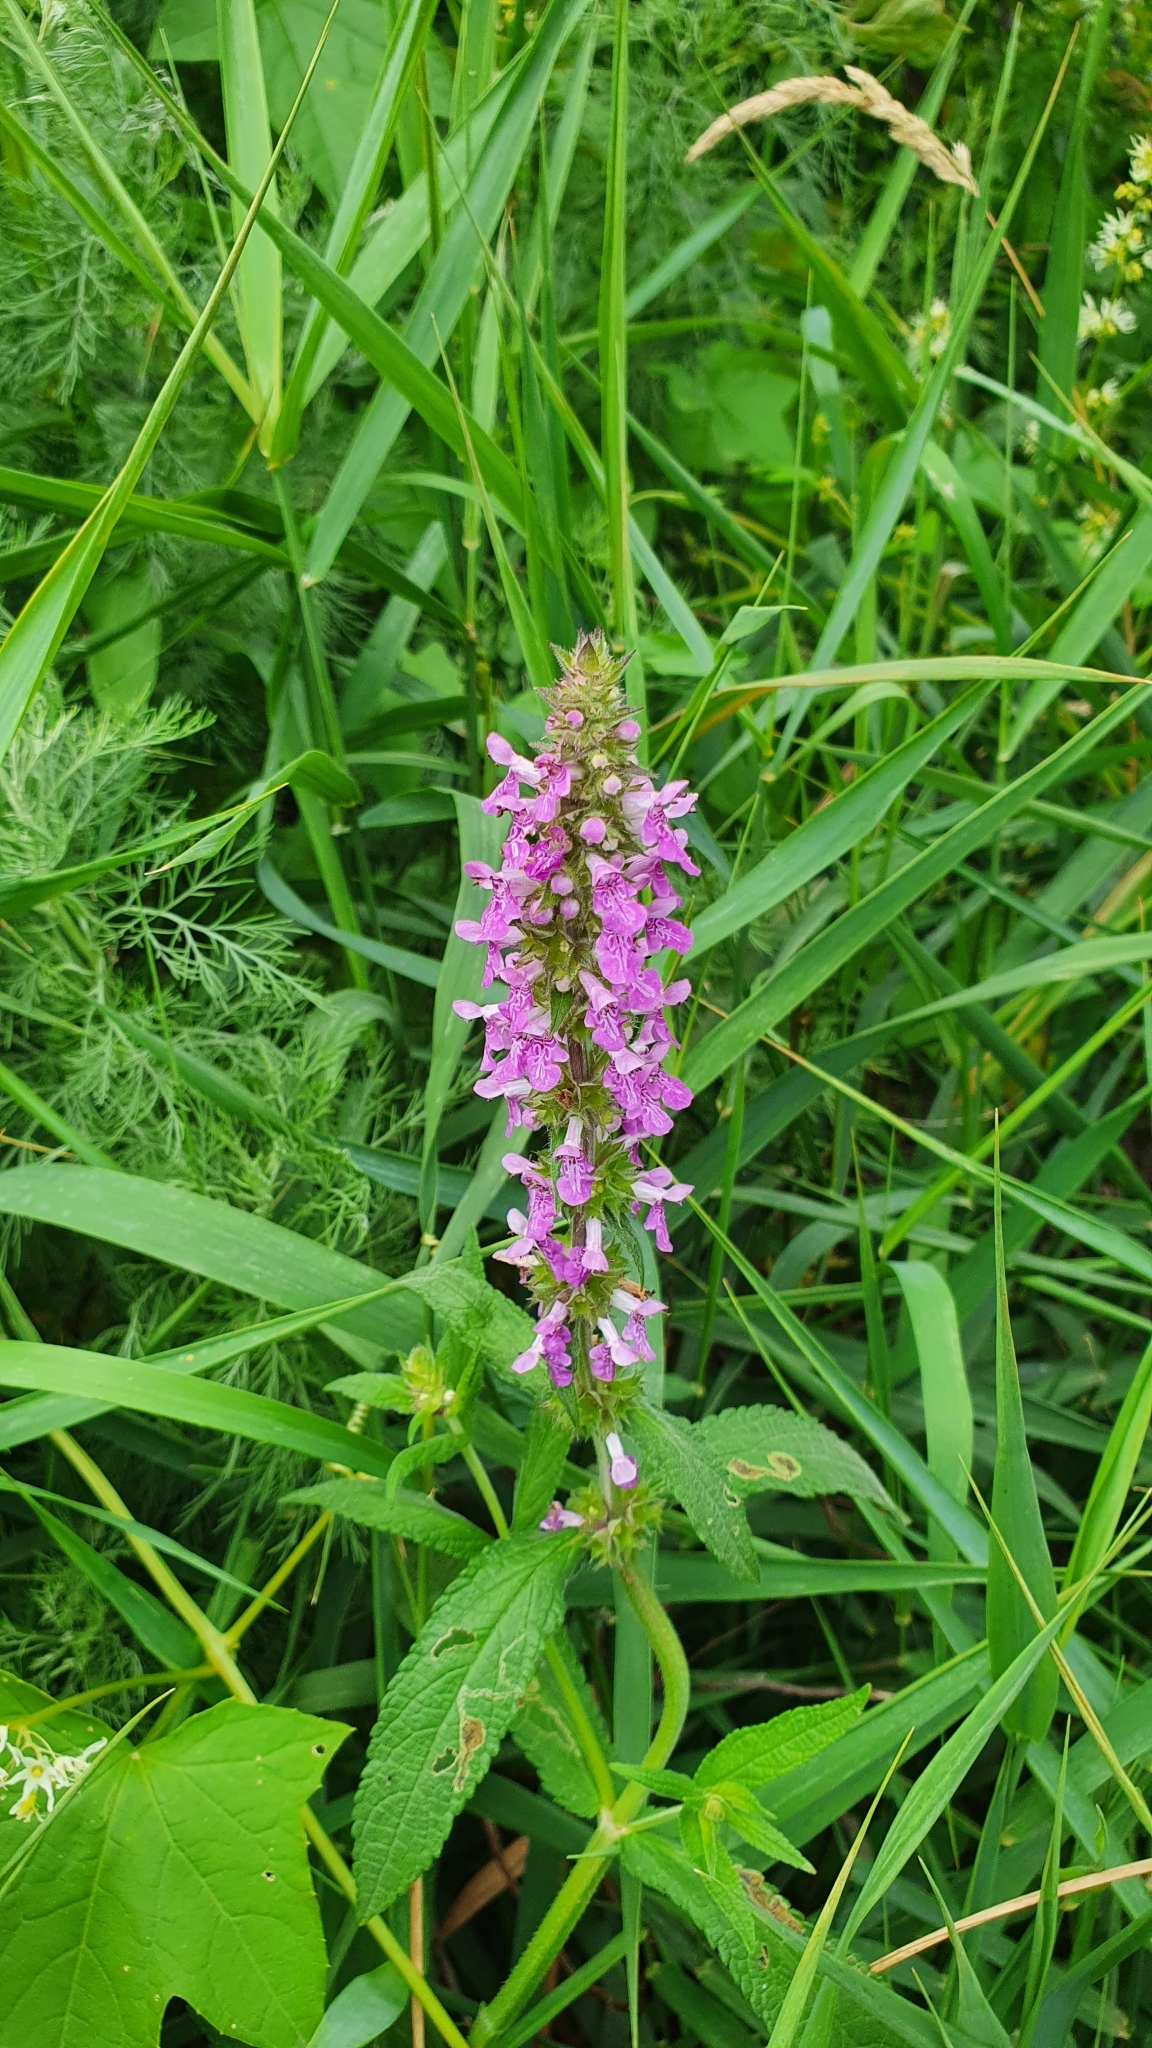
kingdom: Plantae
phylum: Tracheophyta
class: Magnoliopsida
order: Lamiales
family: Lamiaceae
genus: Stachys
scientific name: Stachys palustris
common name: Marsh woundwort
